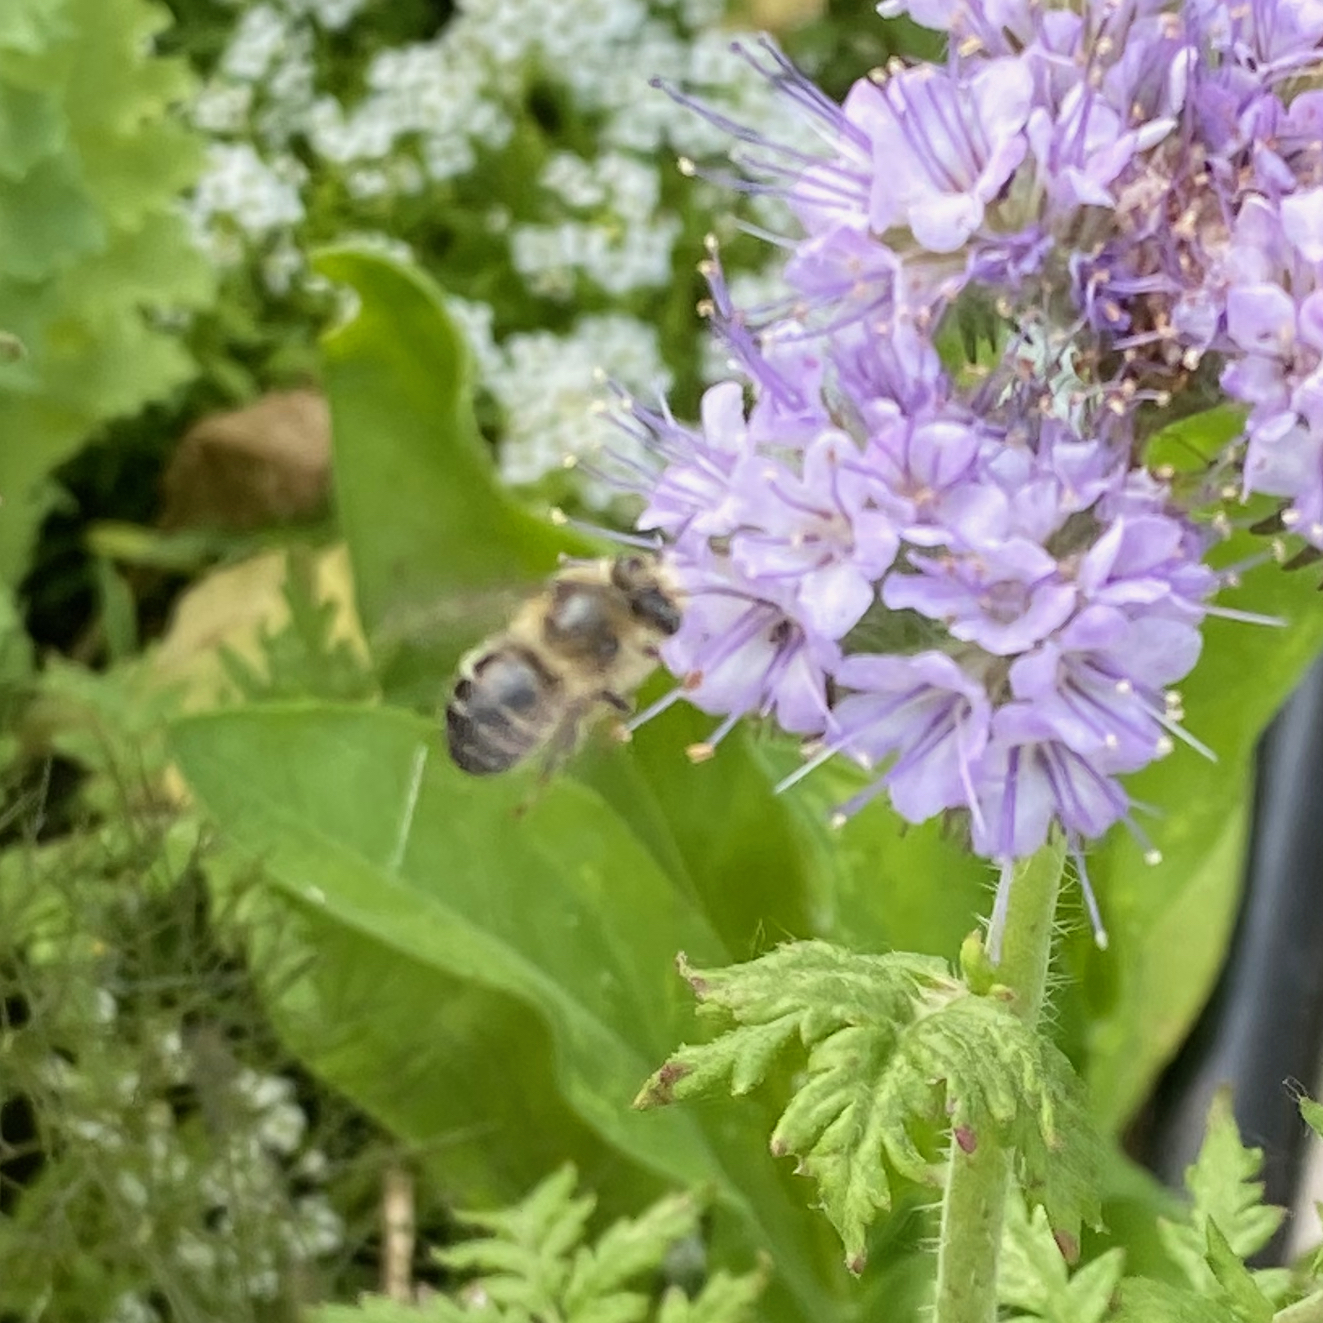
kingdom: Animalia
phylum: Arthropoda
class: Insecta
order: Hymenoptera
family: Apidae
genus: Anthophora
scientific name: Anthophora terminalis
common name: Orange-tipped wood-digger bee
